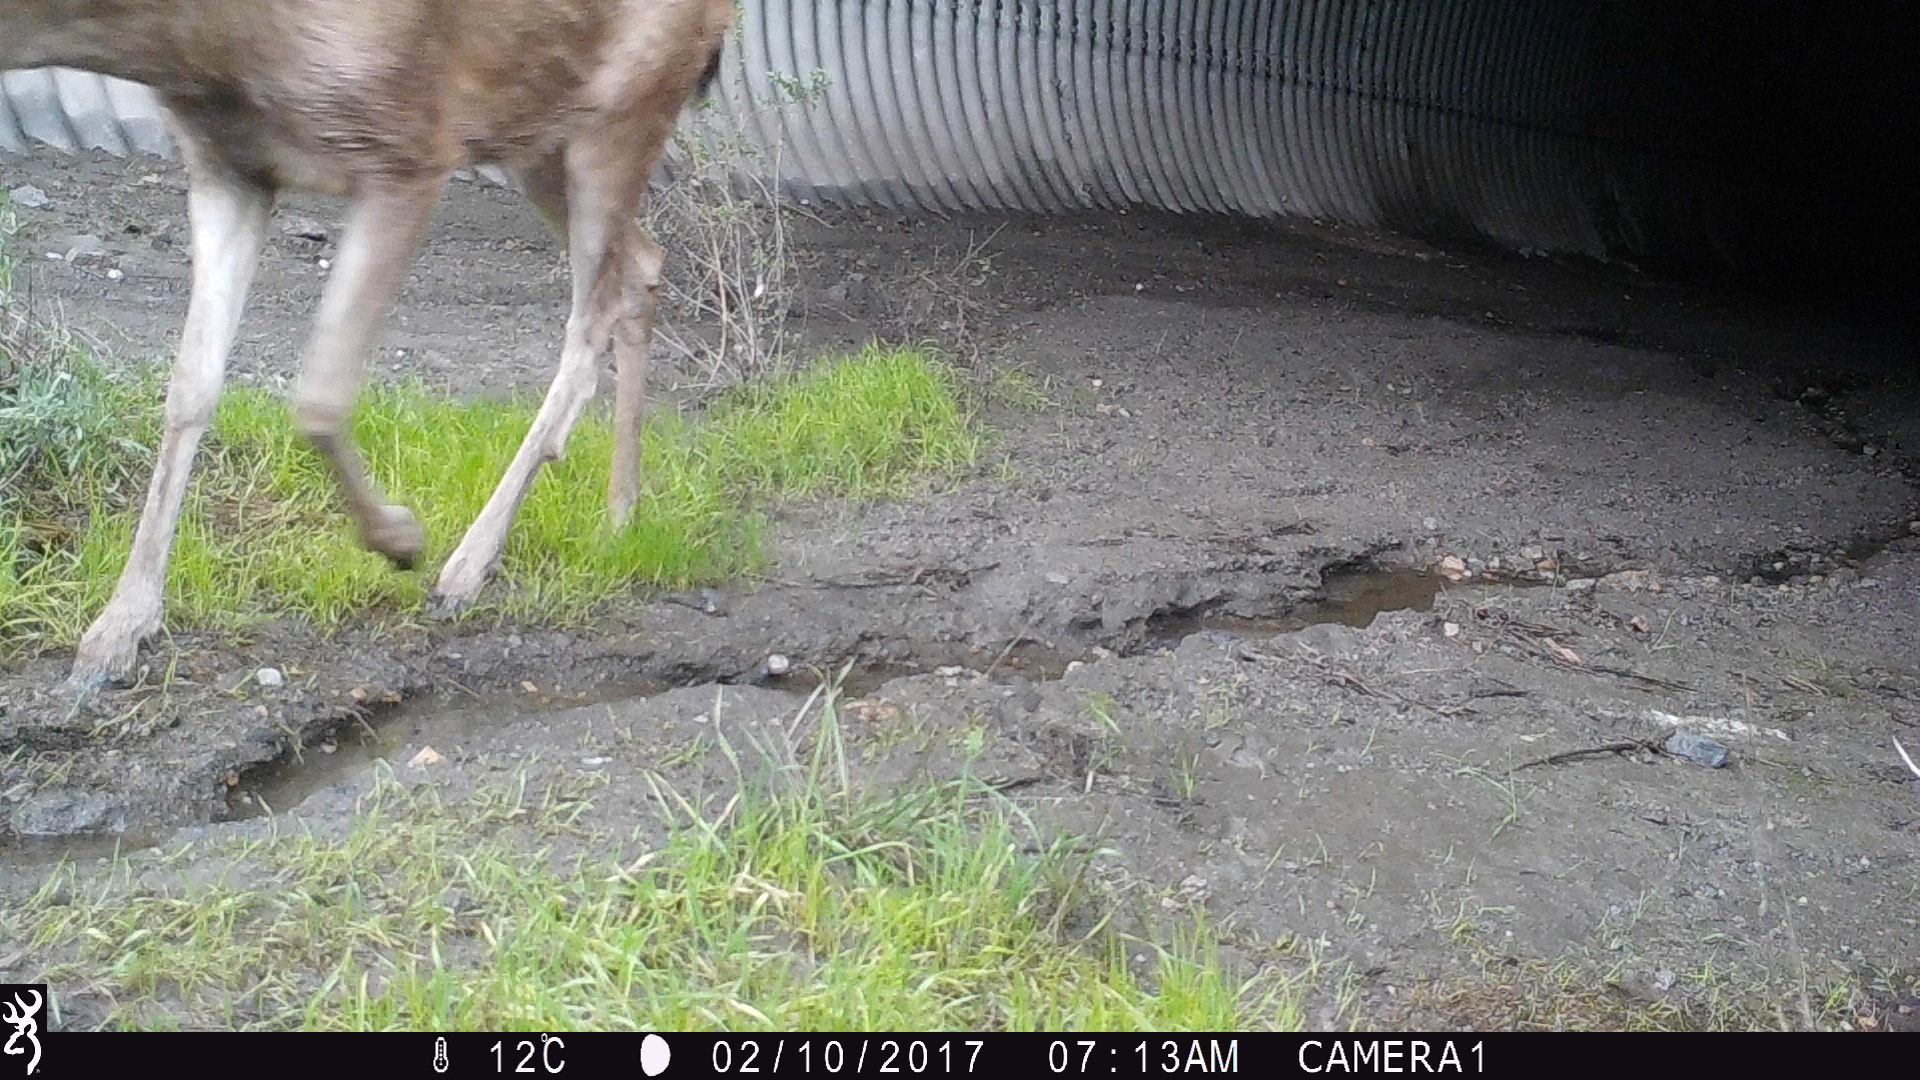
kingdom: Animalia
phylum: Chordata
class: Mammalia
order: Artiodactyla
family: Cervidae
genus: Odocoileus
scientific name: Odocoileus hemionus
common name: Mule deer
